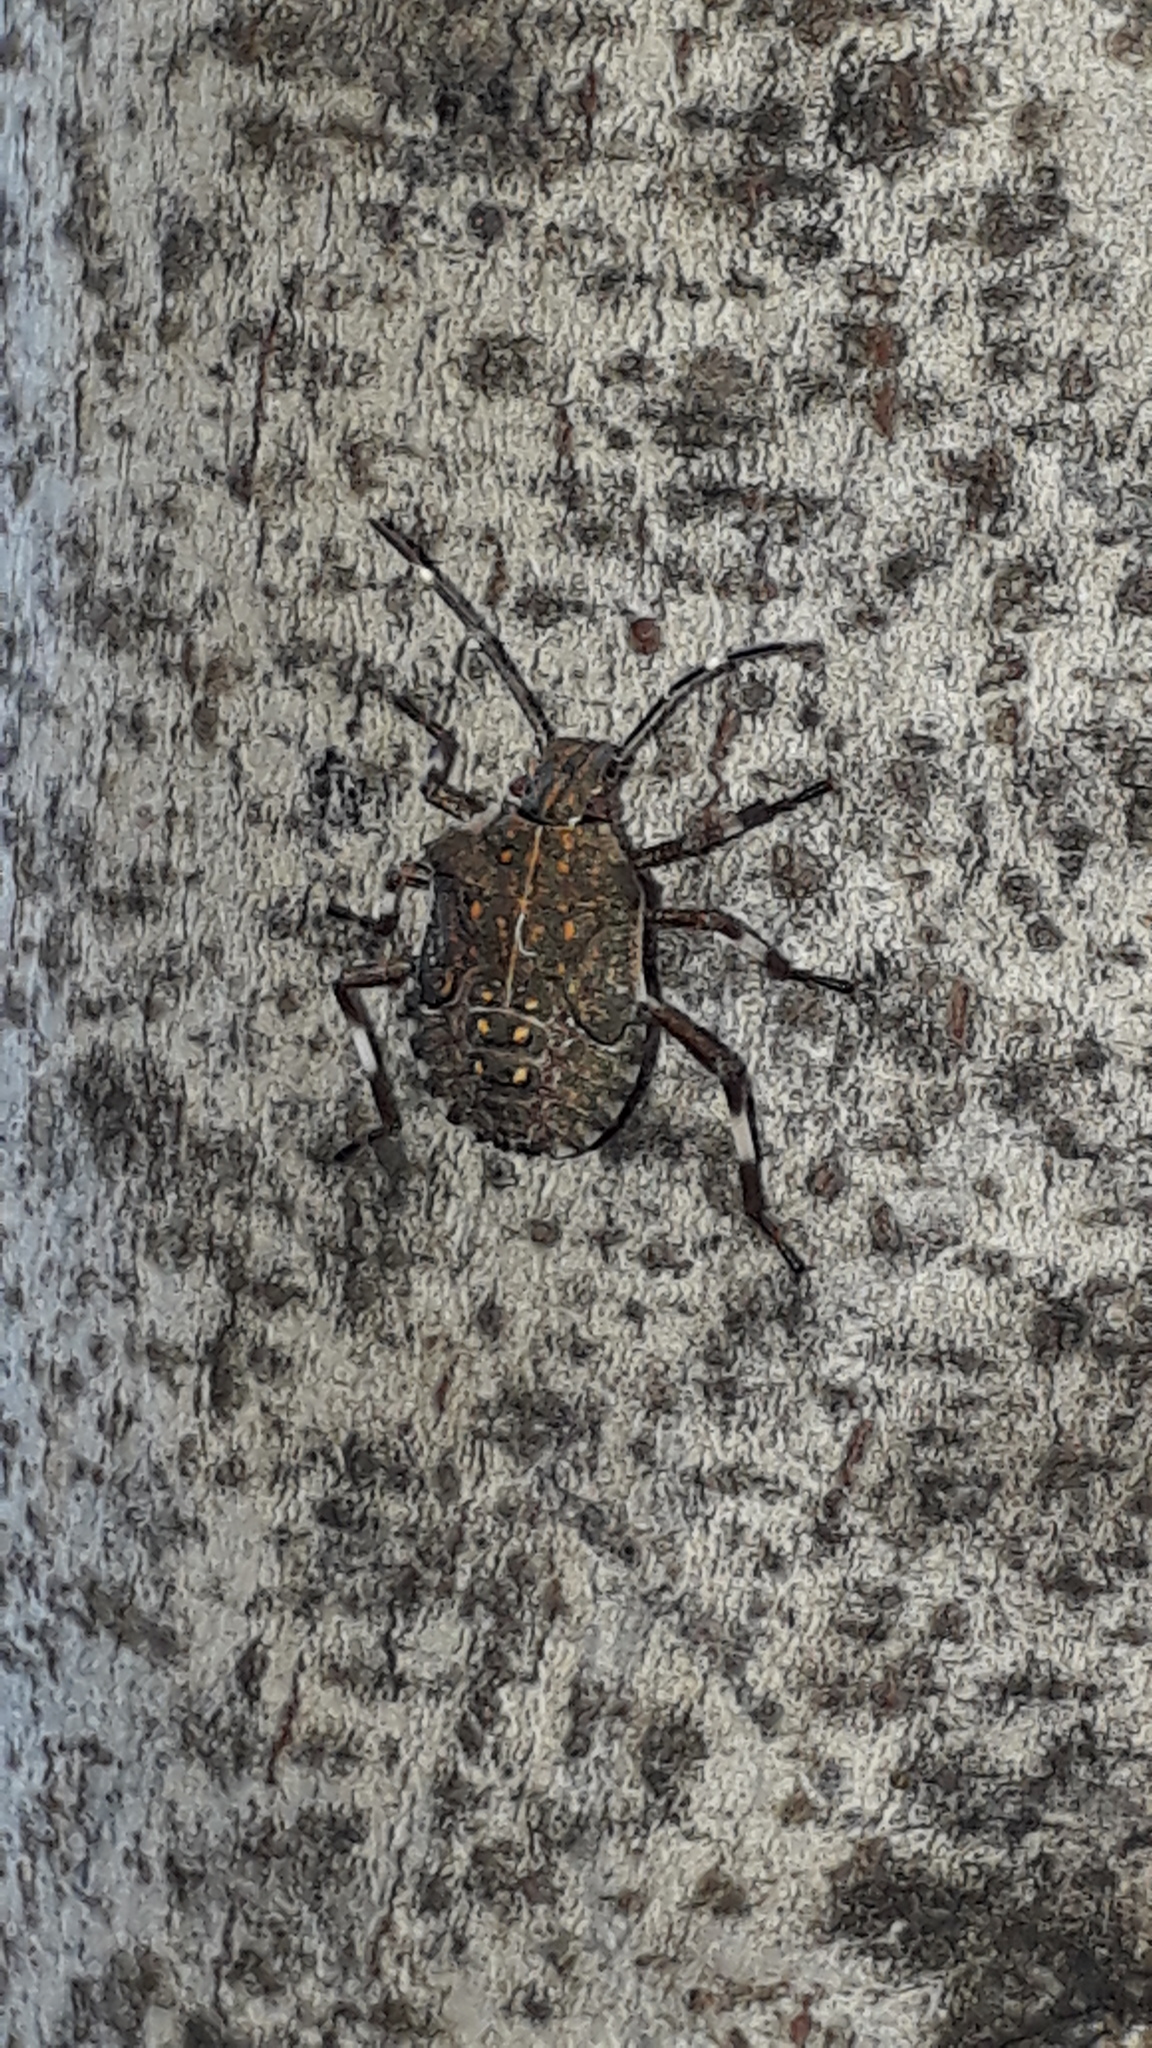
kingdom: Animalia
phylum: Arthropoda
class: Insecta
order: Hemiptera
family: Pentatomidae
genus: Halyomorpha
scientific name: Halyomorpha halys
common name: Brown marmorated stink bug
